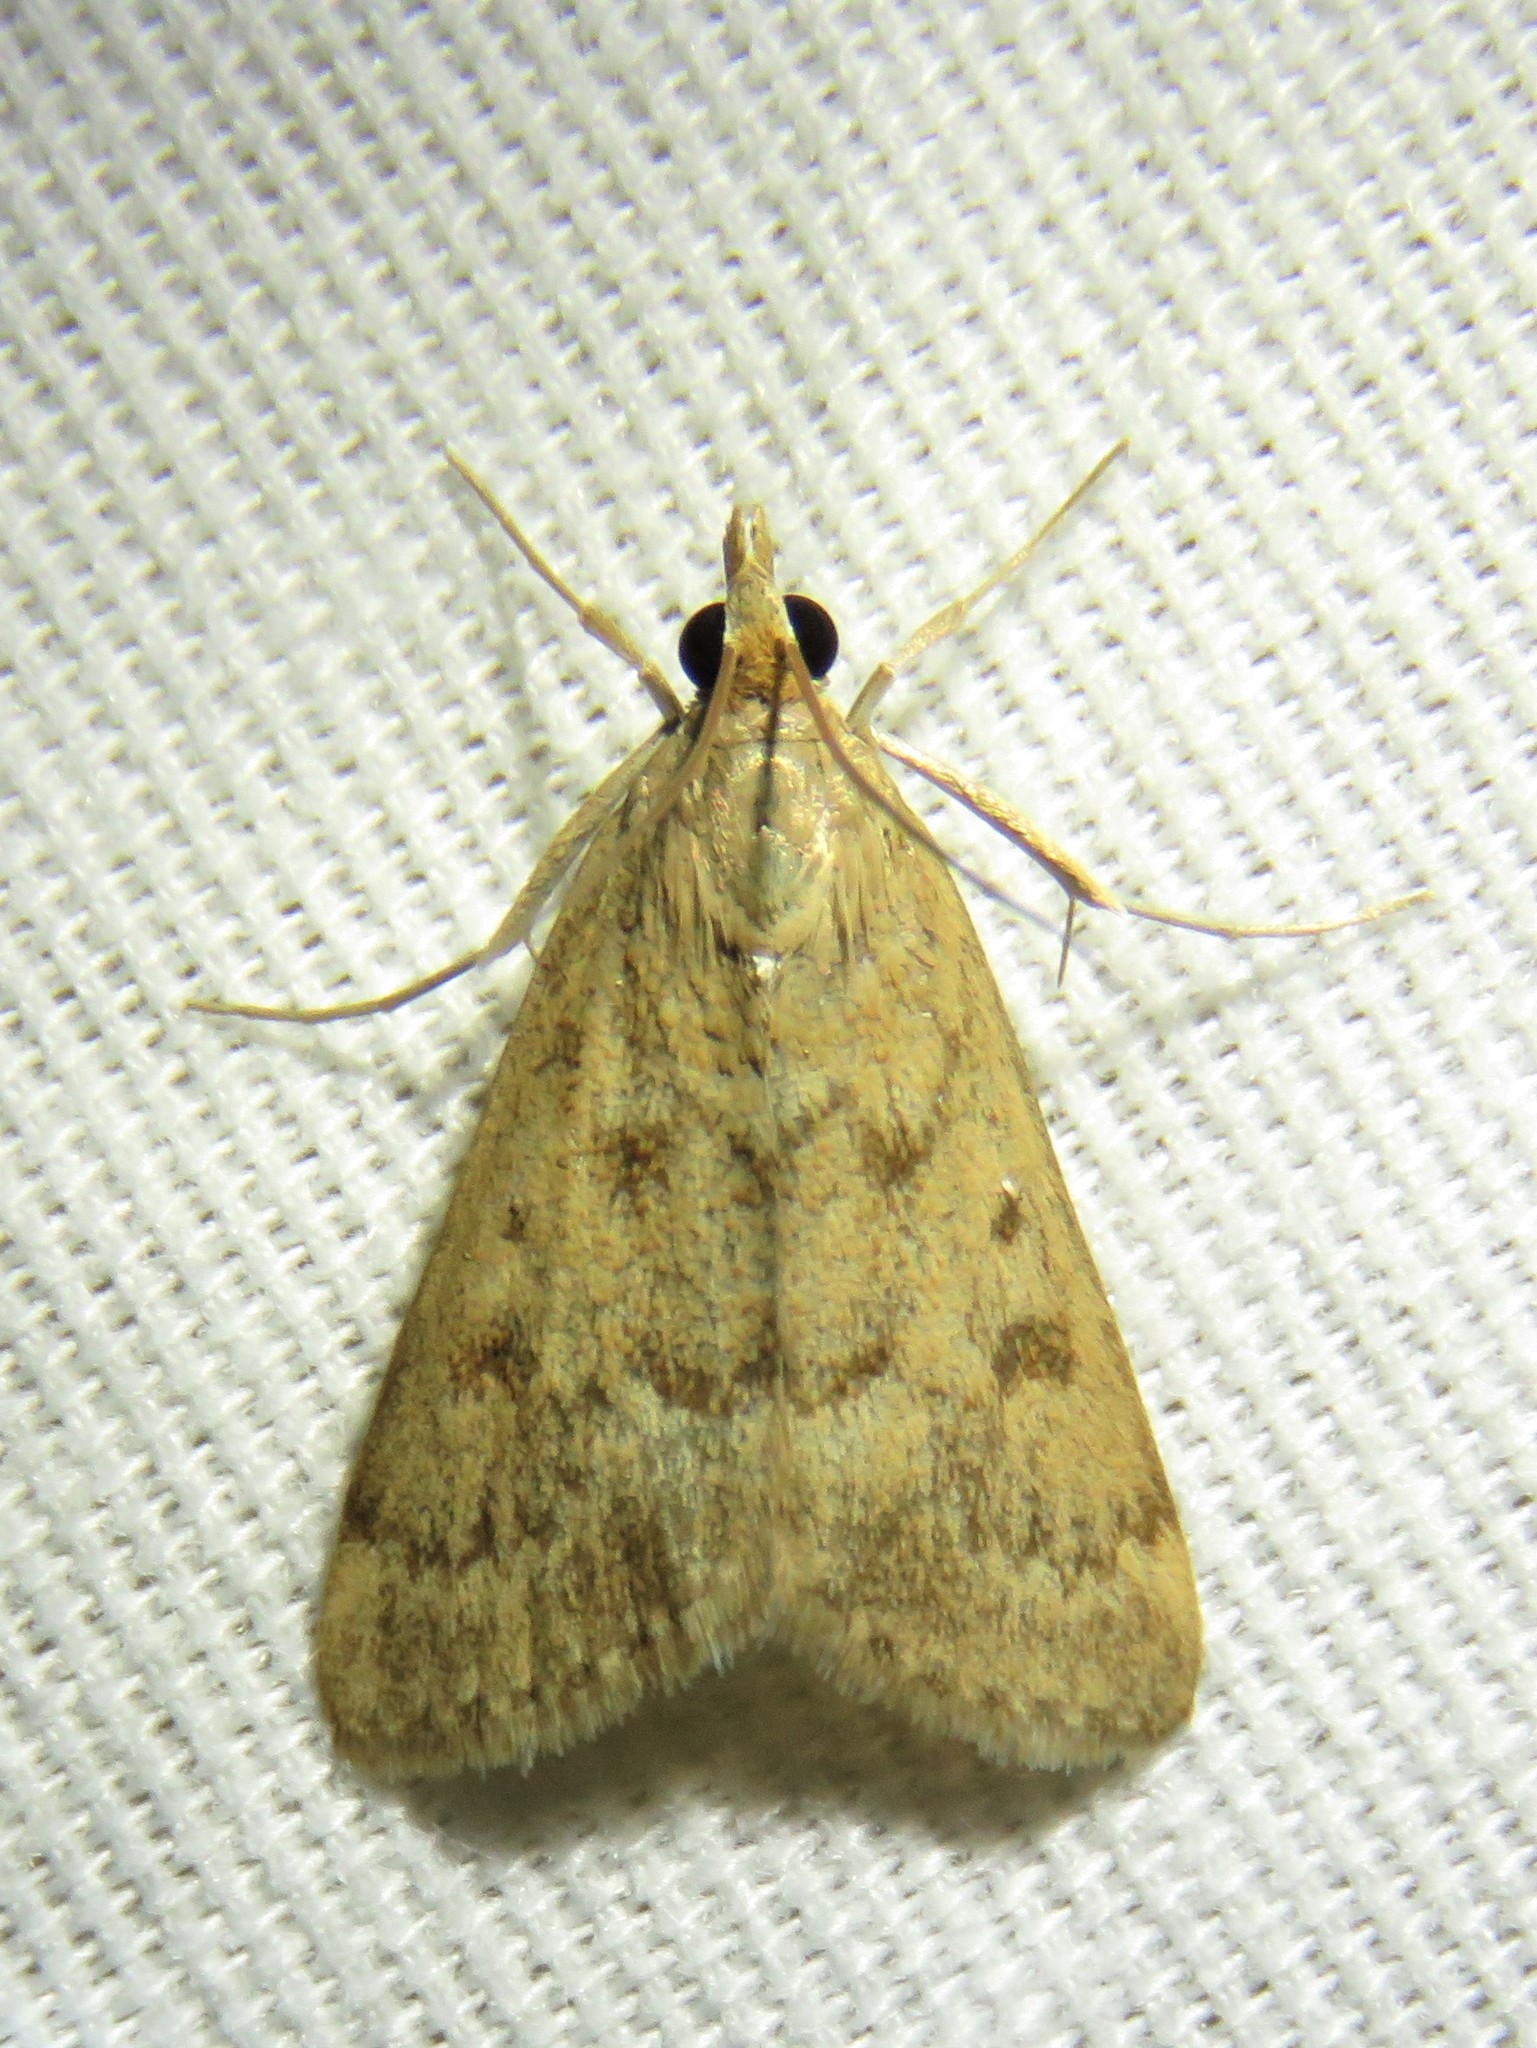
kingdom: Animalia
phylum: Arthropoda
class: Insecta
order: Lepidoptera
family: Crambidae
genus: Achyra
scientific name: Achyra rantalis
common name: Garden webworm
